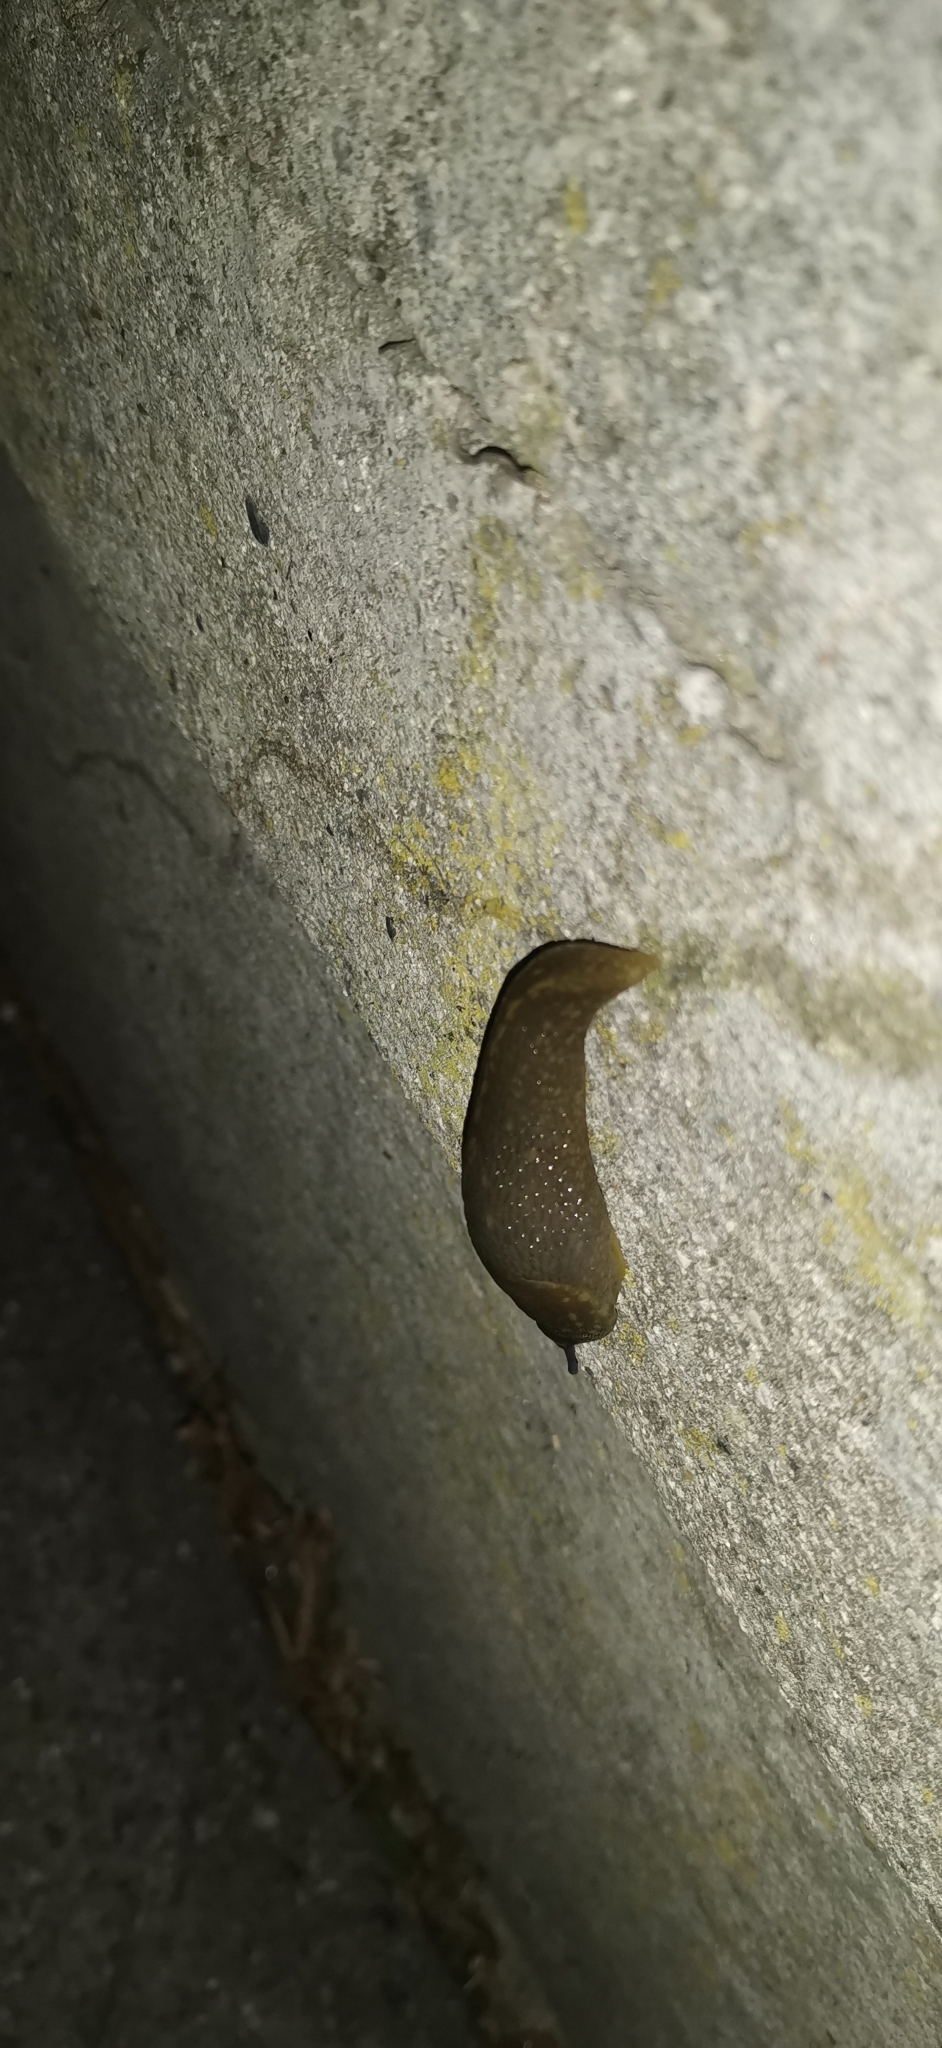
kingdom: Animalia
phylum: Mollusca
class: Gastropoda
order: Stylommatophora
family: Limacidae
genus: Limacus
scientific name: Limacus flavus
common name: Yellow gardenslug
